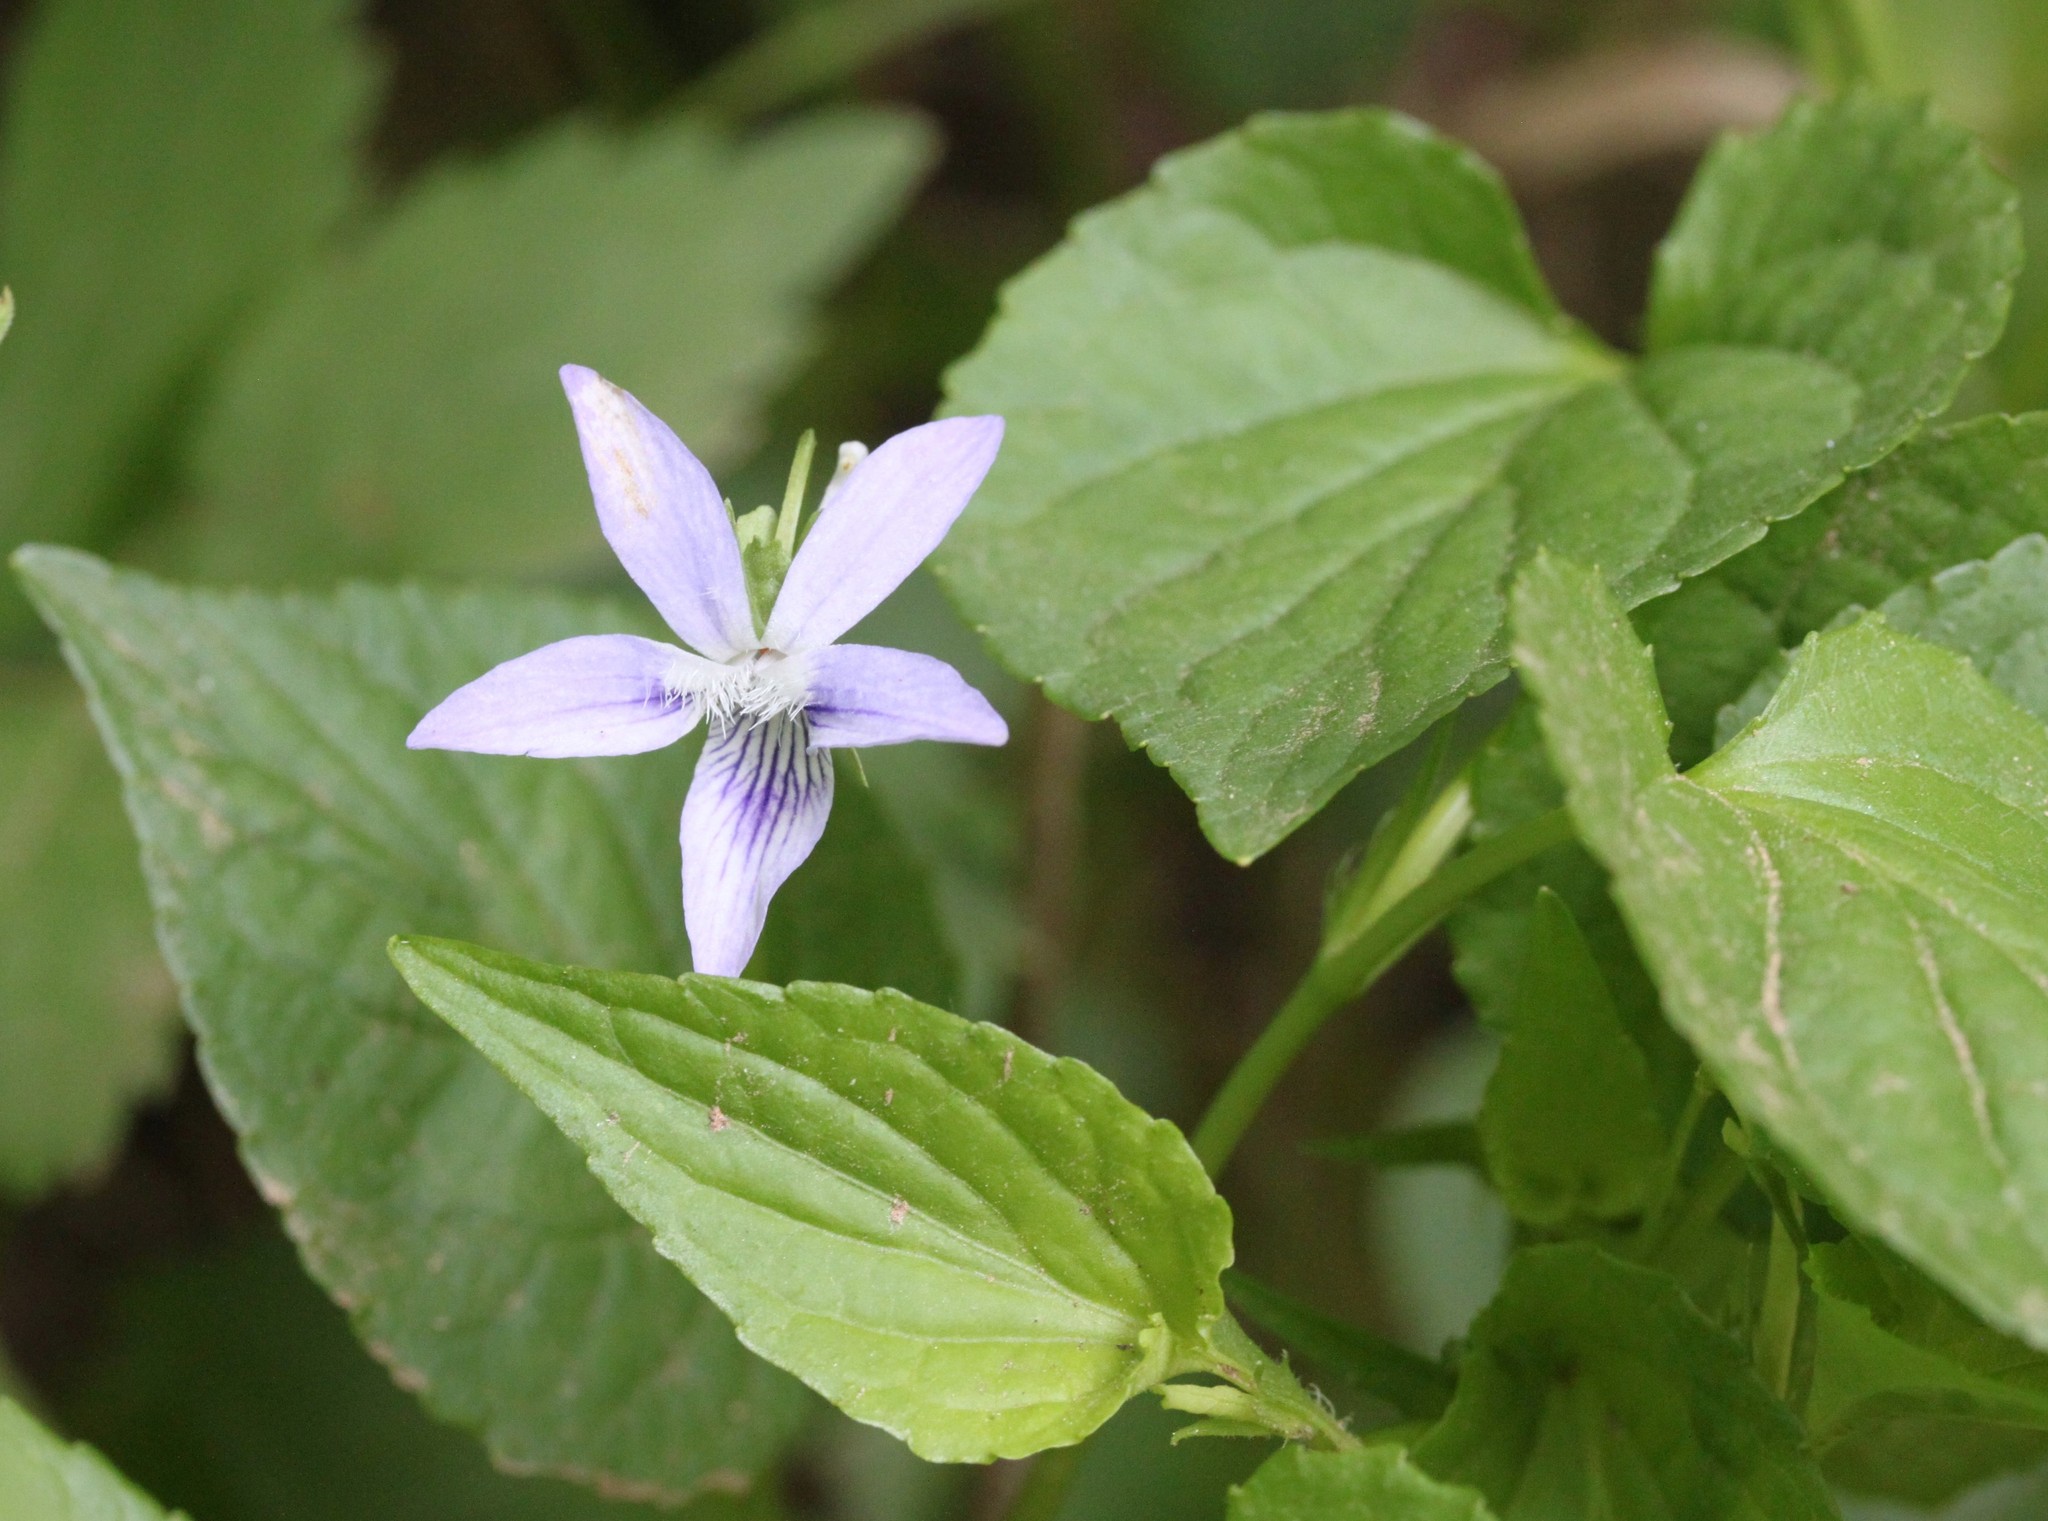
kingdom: Plantae
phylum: Tracheophyta
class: Magnoliopsida
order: Malpighiales
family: Violaceae
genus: Viola
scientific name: Viola labradorica
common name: Labrador violet
